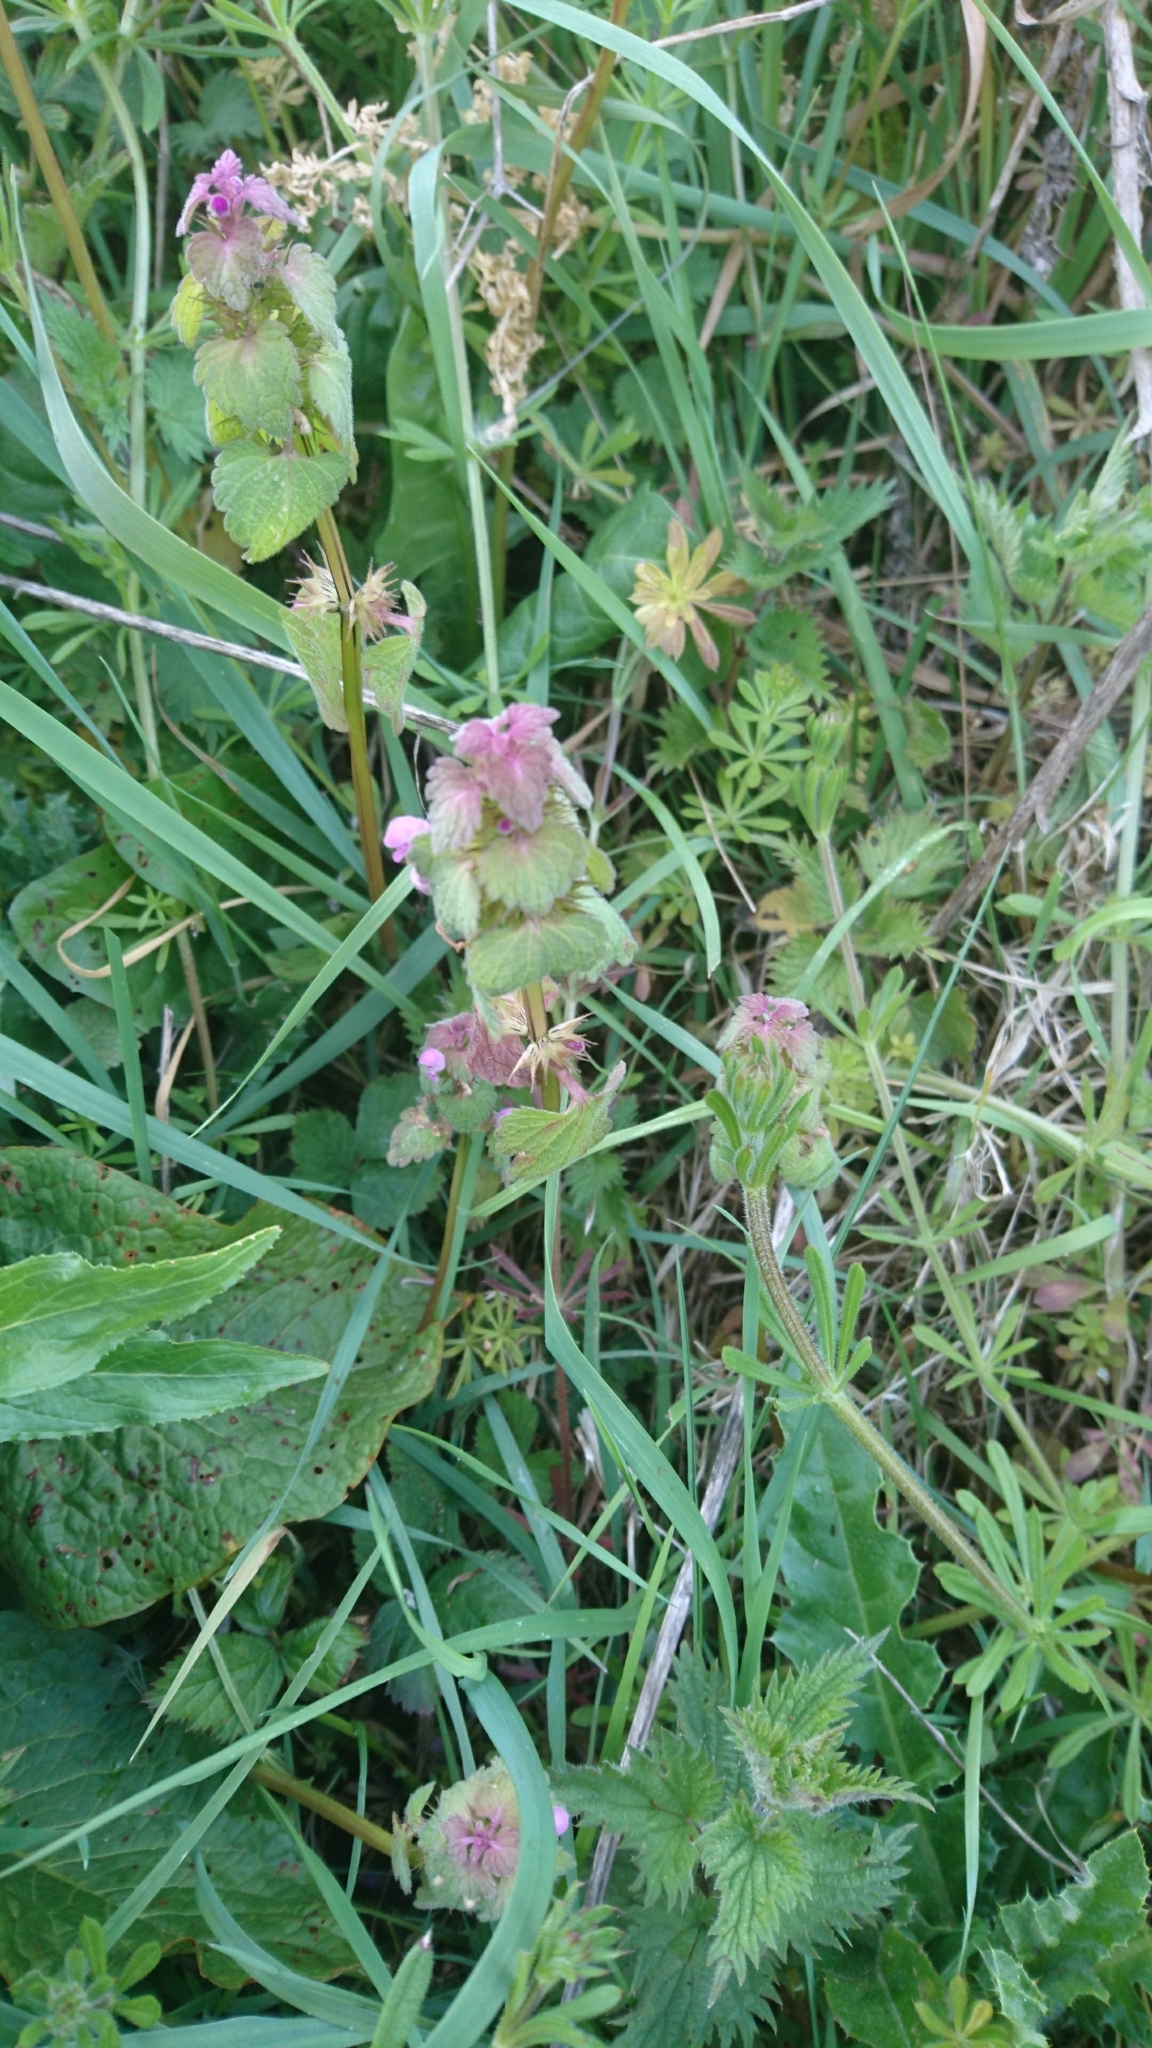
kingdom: Plantae
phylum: Tracheophyta
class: Magnoliopsida
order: Lamiales
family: Lamiaceae
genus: Lamium
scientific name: Lamium purpureum
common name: Red dead-nettle
